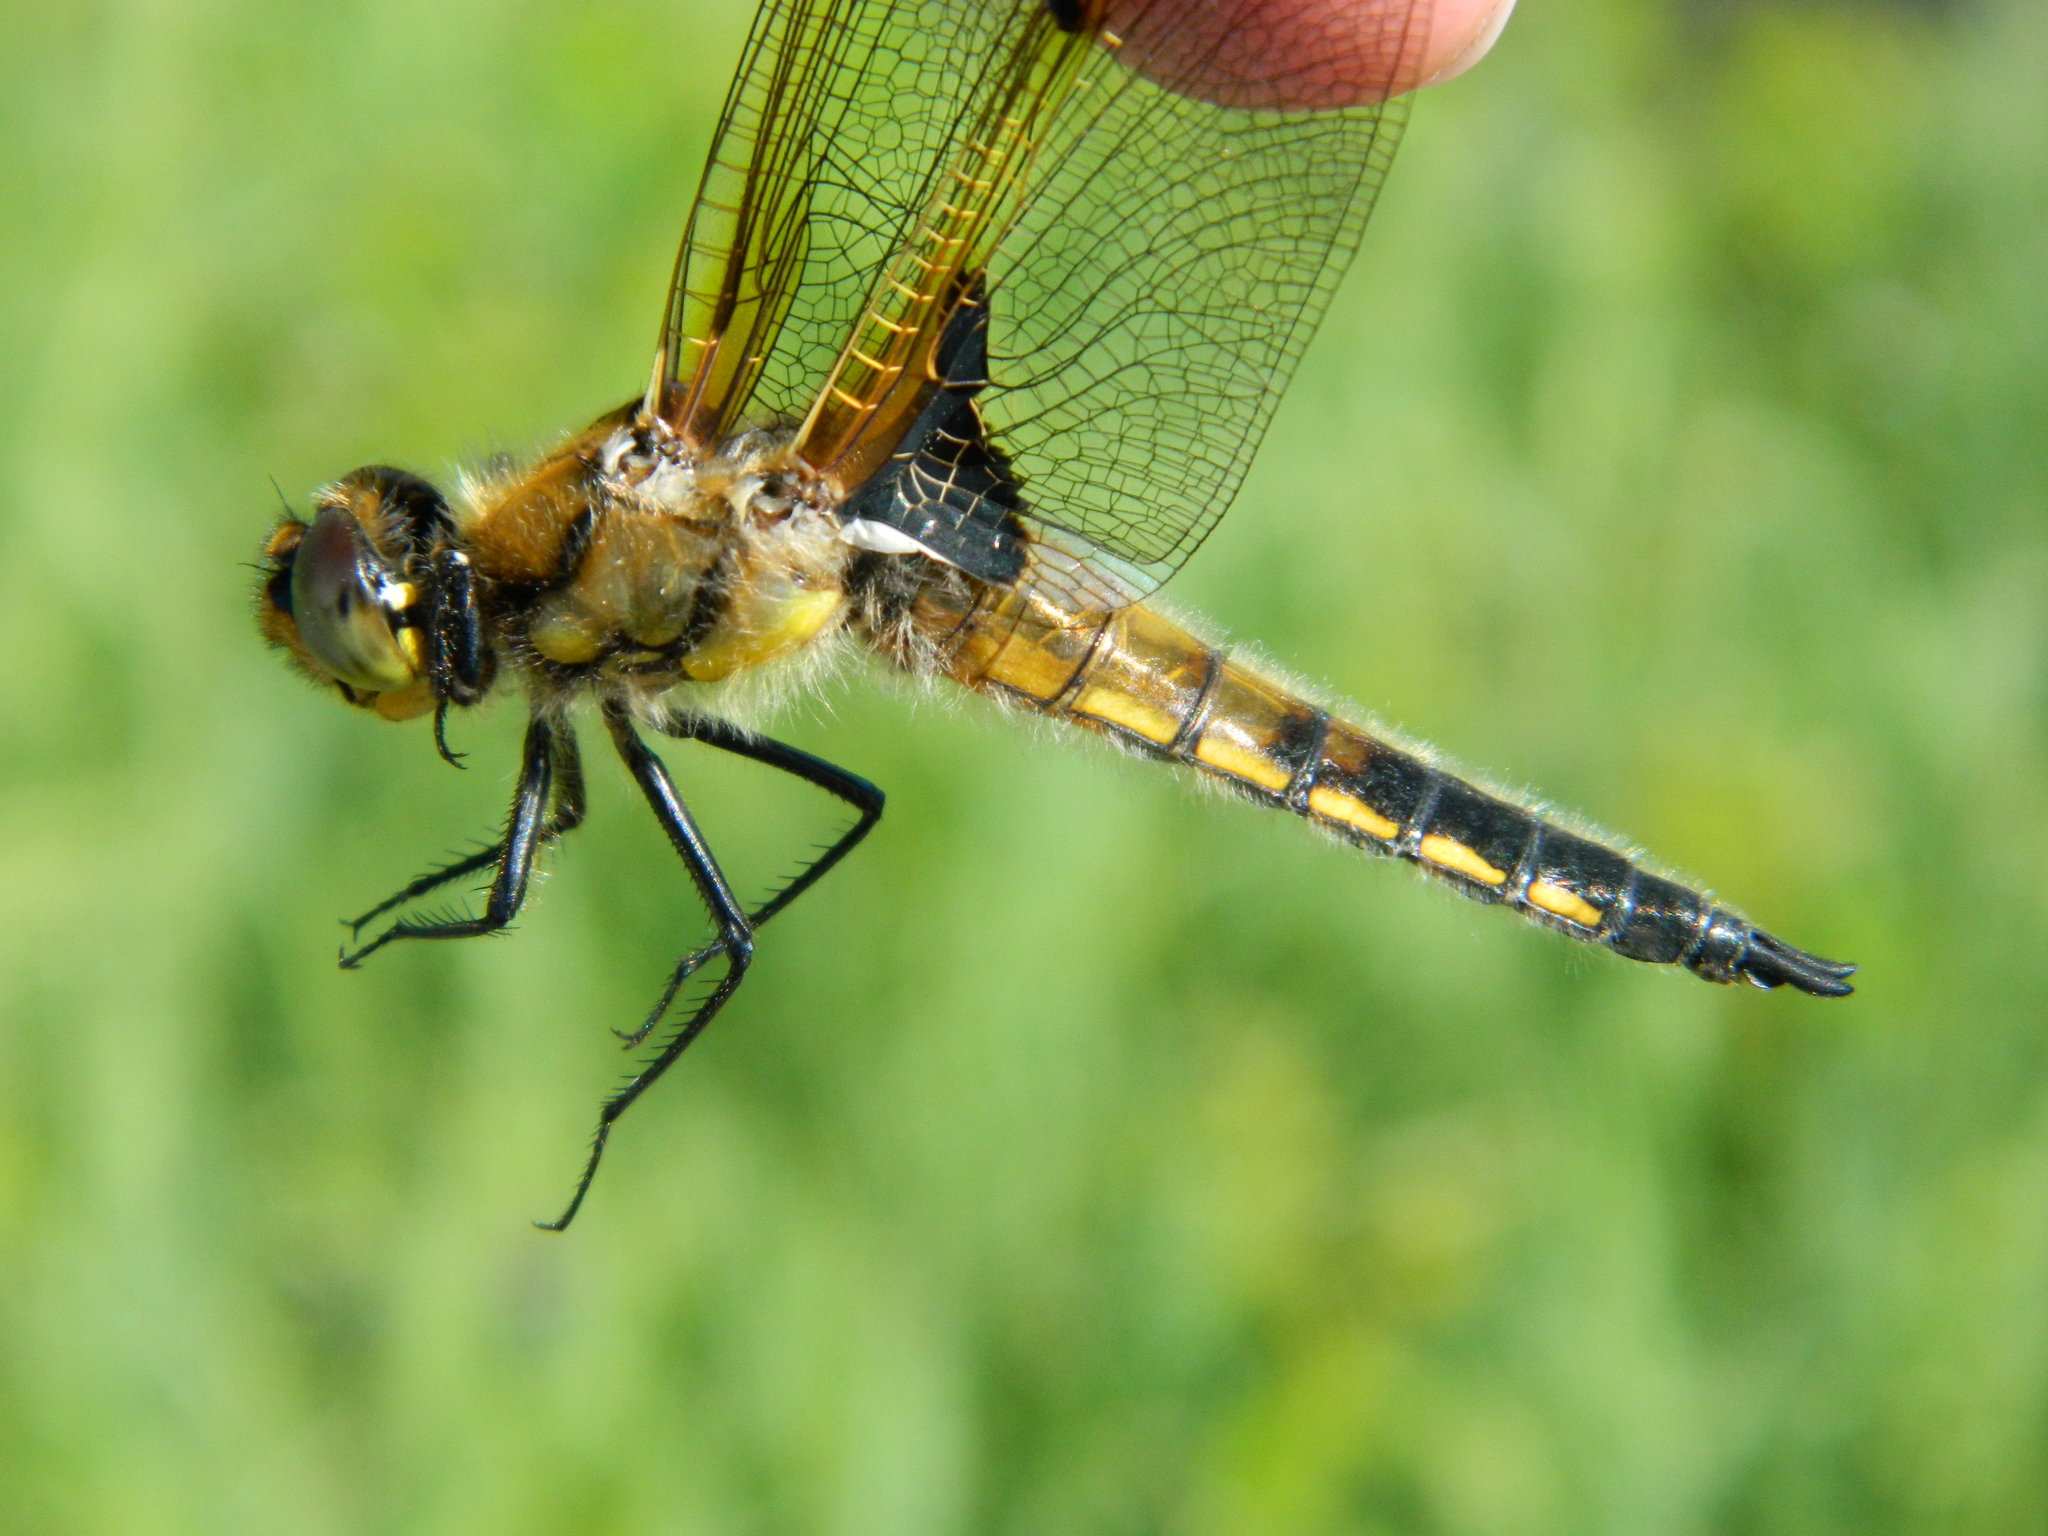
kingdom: Animalia
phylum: Arthropoda
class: Insecta
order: Odonata
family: Libellulidae
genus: Libellula
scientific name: Libellula quadrimaculata
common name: Four-spotted chaser
